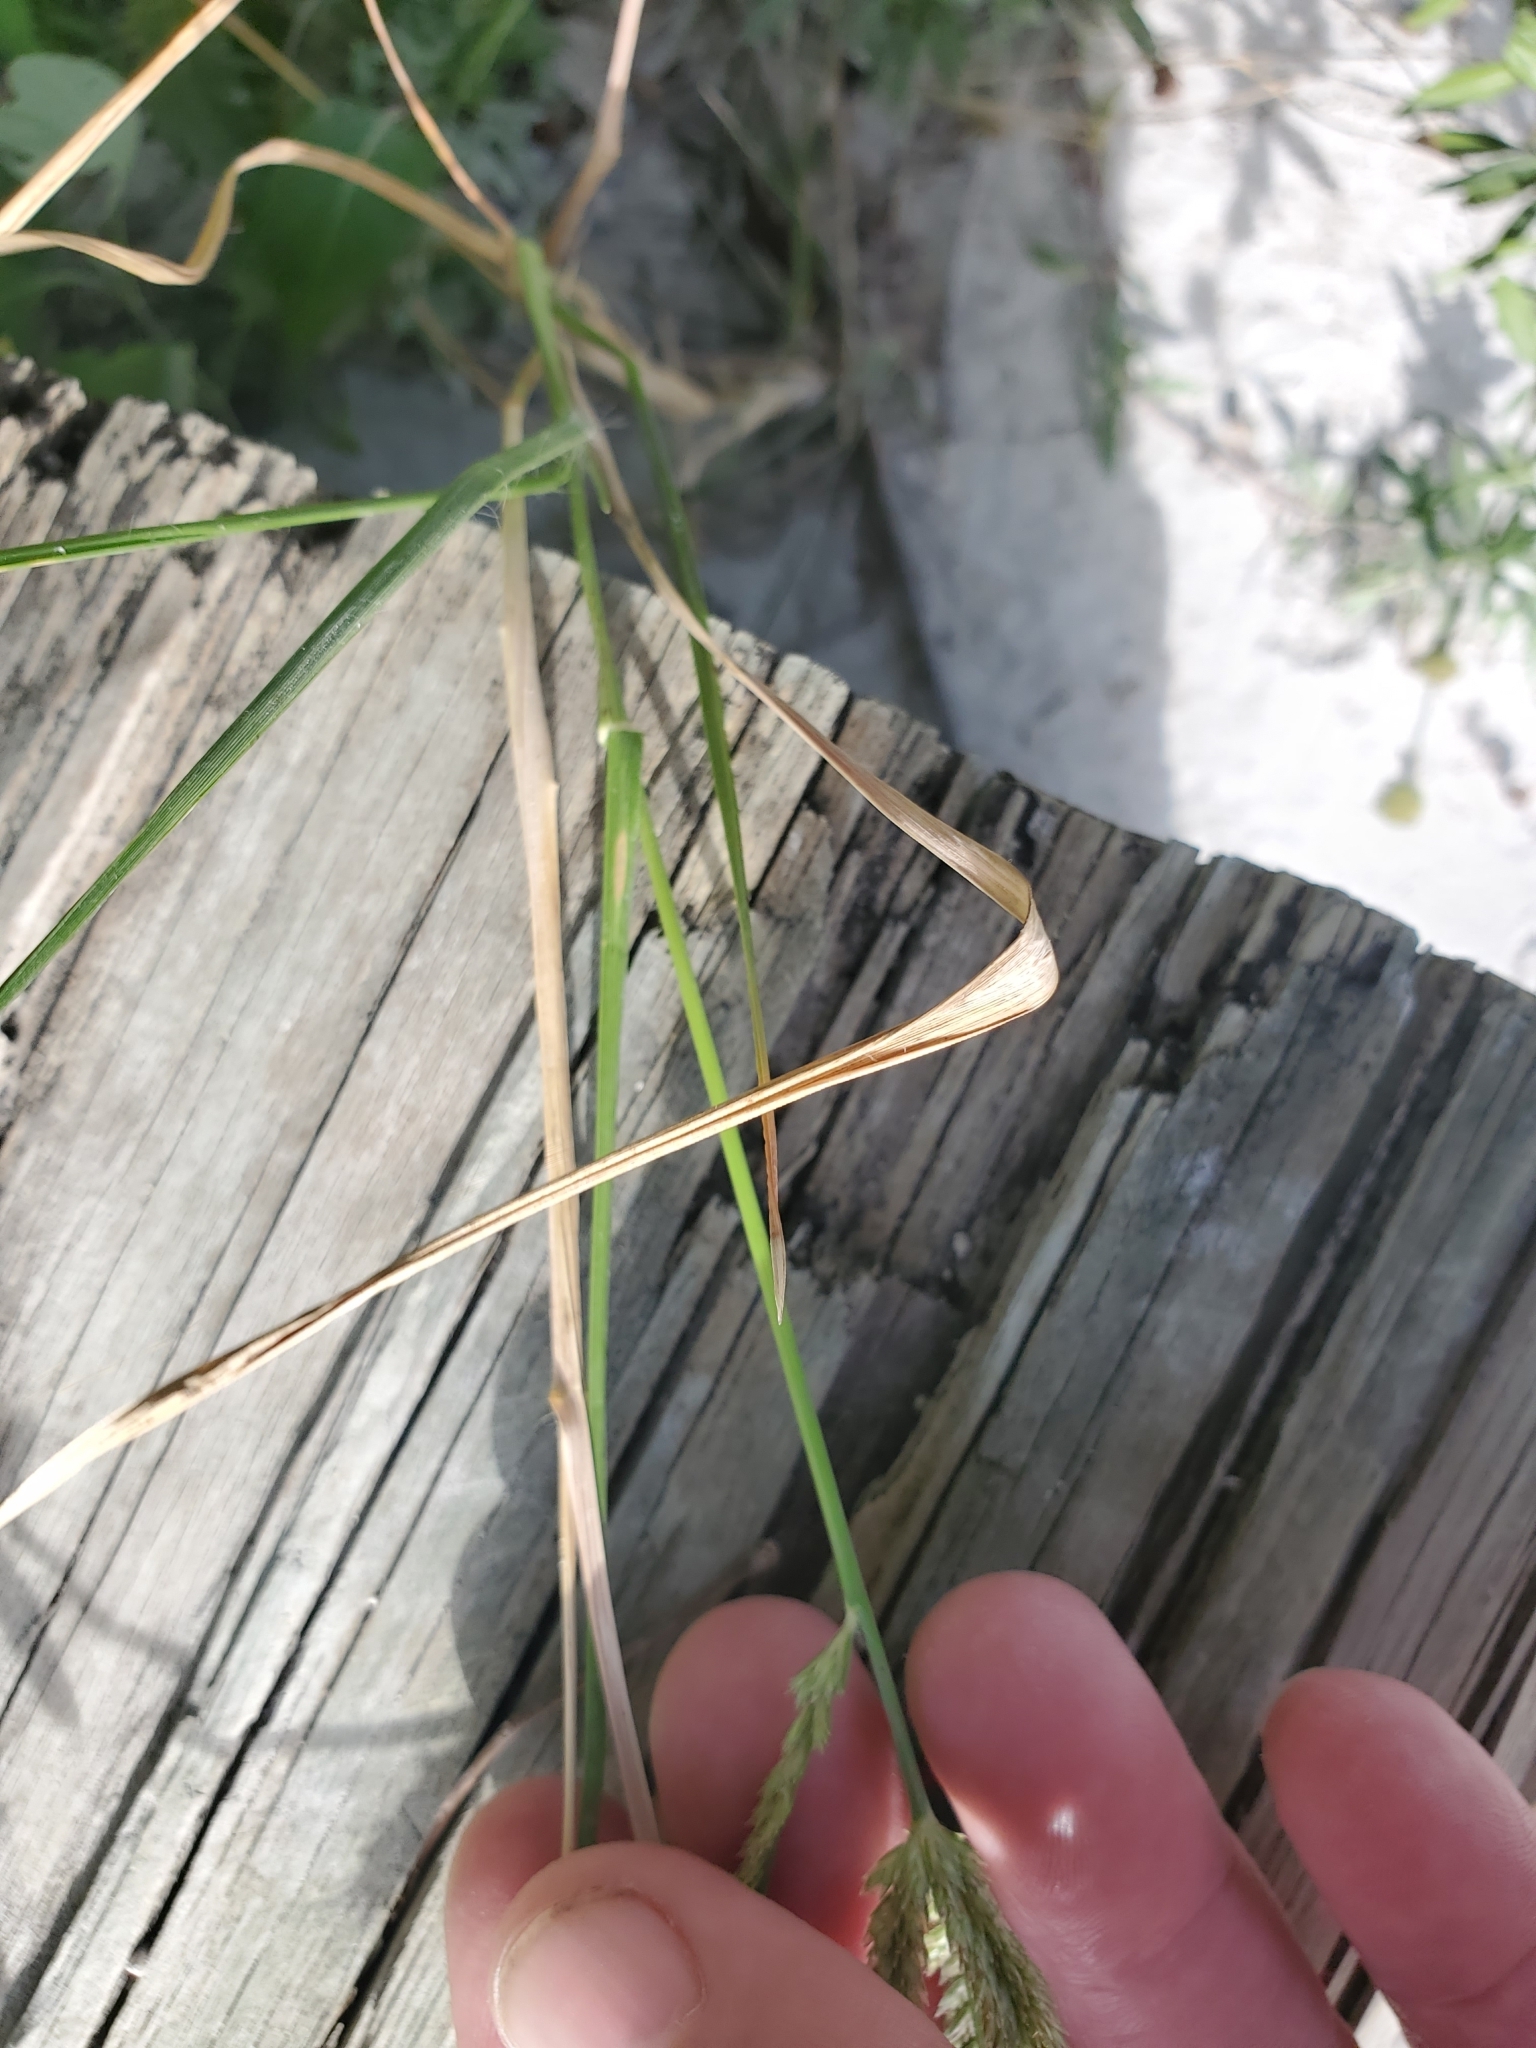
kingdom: Plantae
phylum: Tracheophyta
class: Liliopsida
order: Poales
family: Poaceae
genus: Eleusine
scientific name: Eleusine indica
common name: Yard-grass
